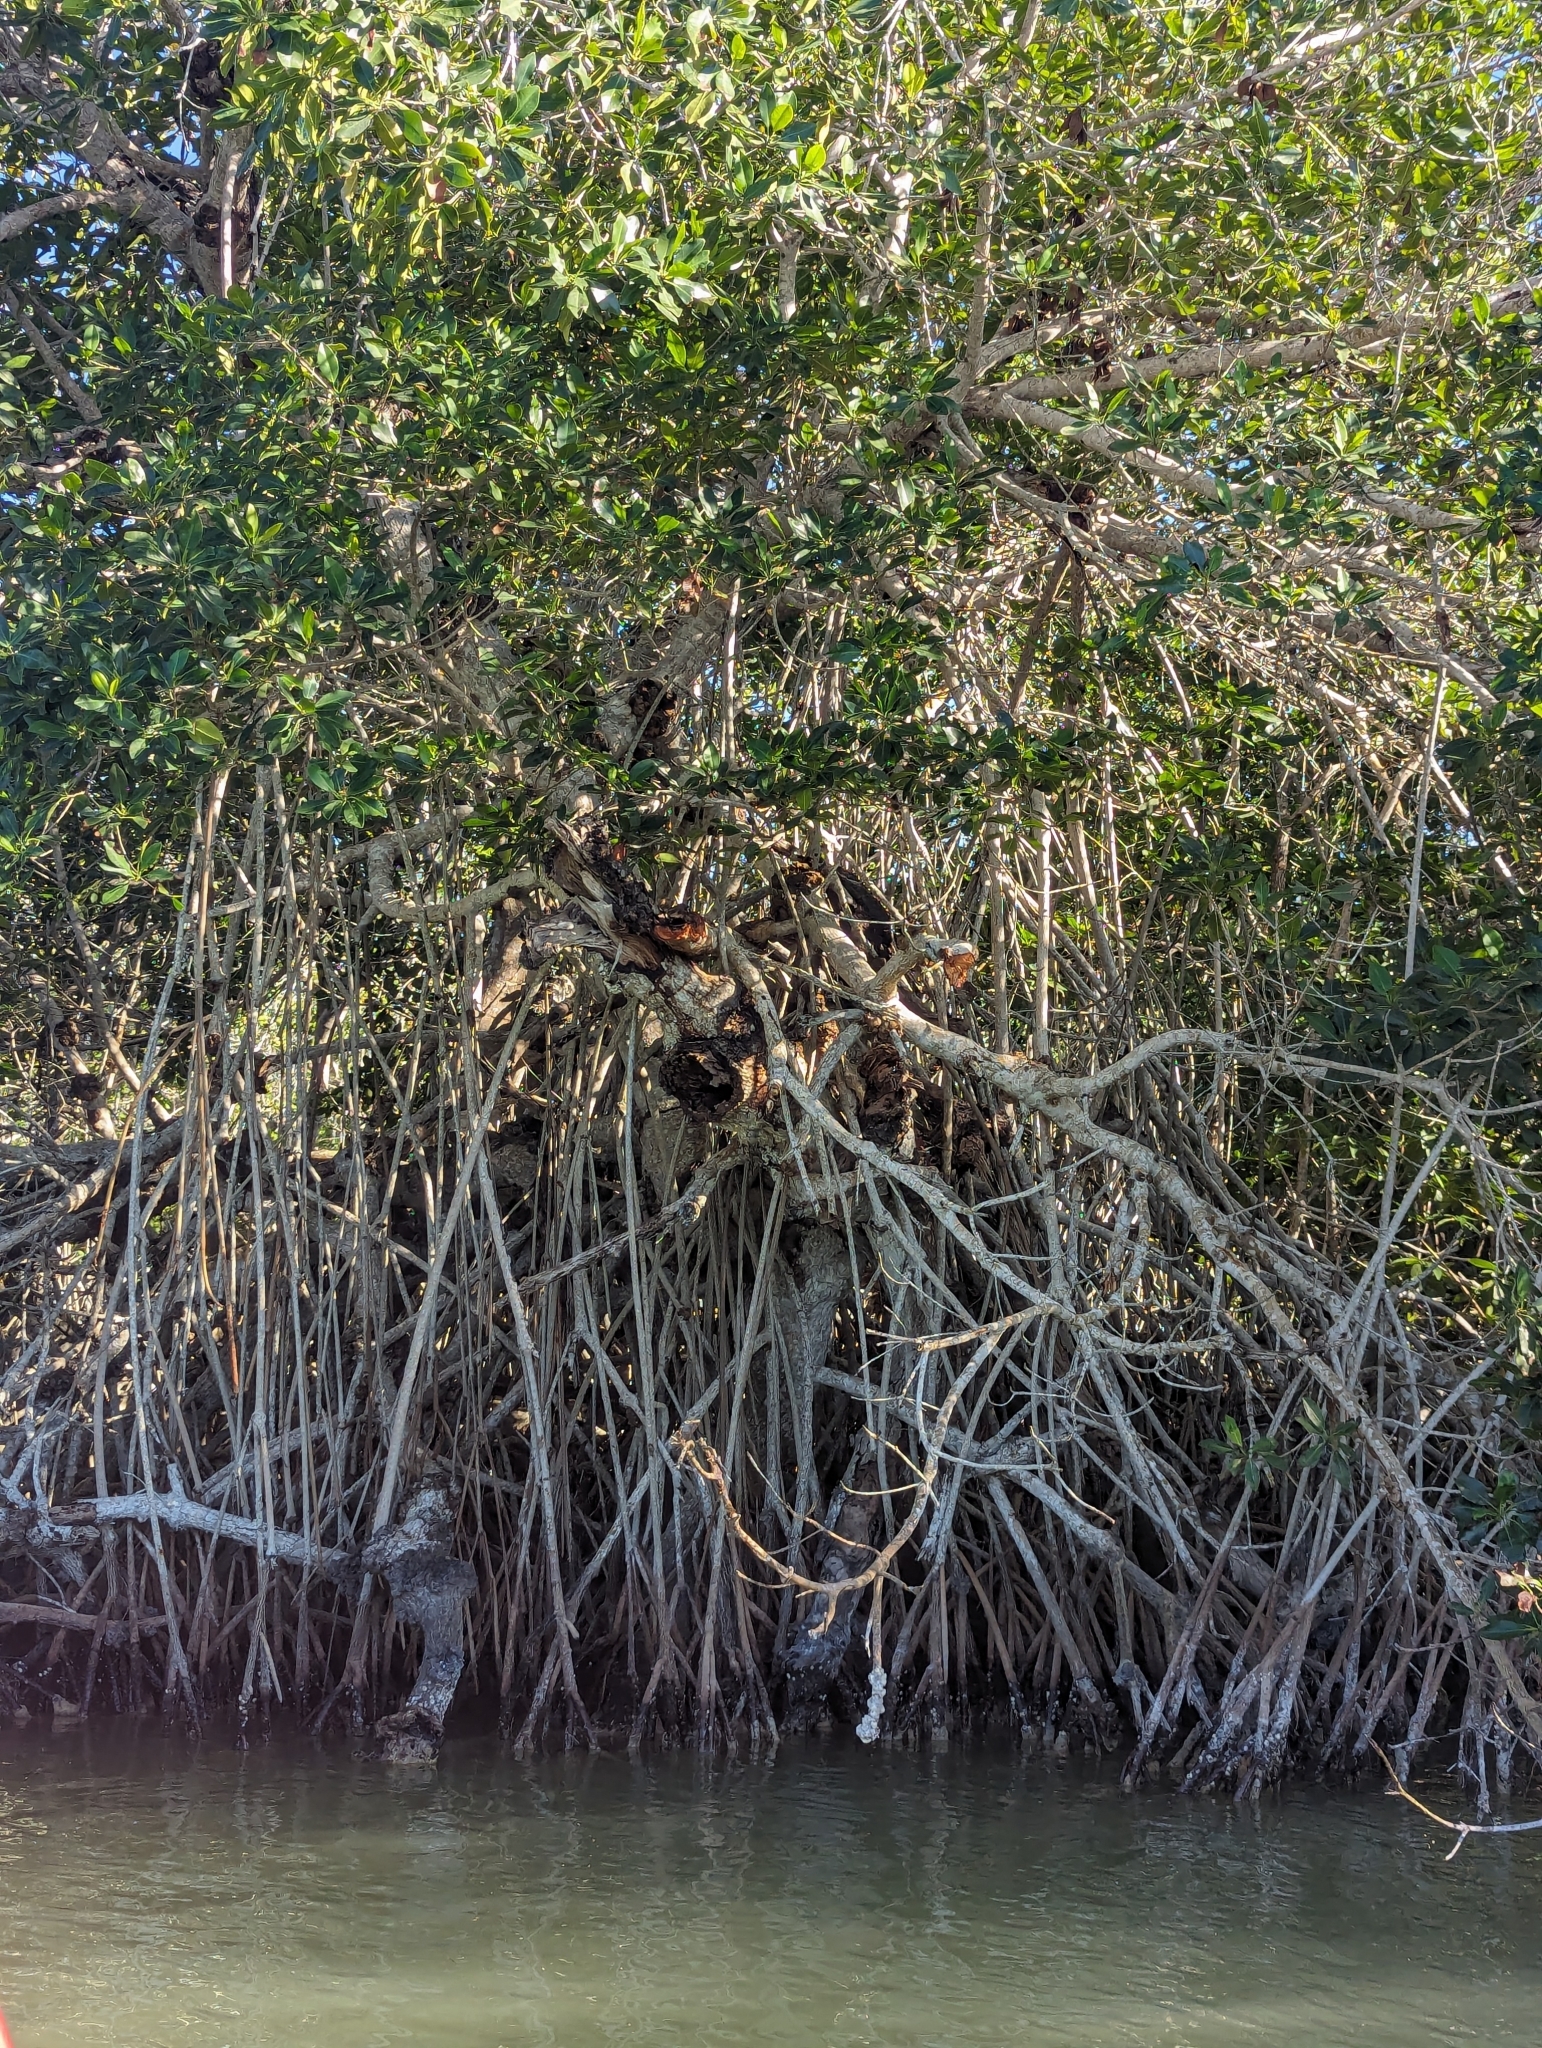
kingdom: Plantae
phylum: Tracheophyta
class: Magnoliopsida
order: Malpighiales
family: Rhizophoraceae
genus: Rhizophora
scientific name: Rhizophora mangle
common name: Red mangrove
